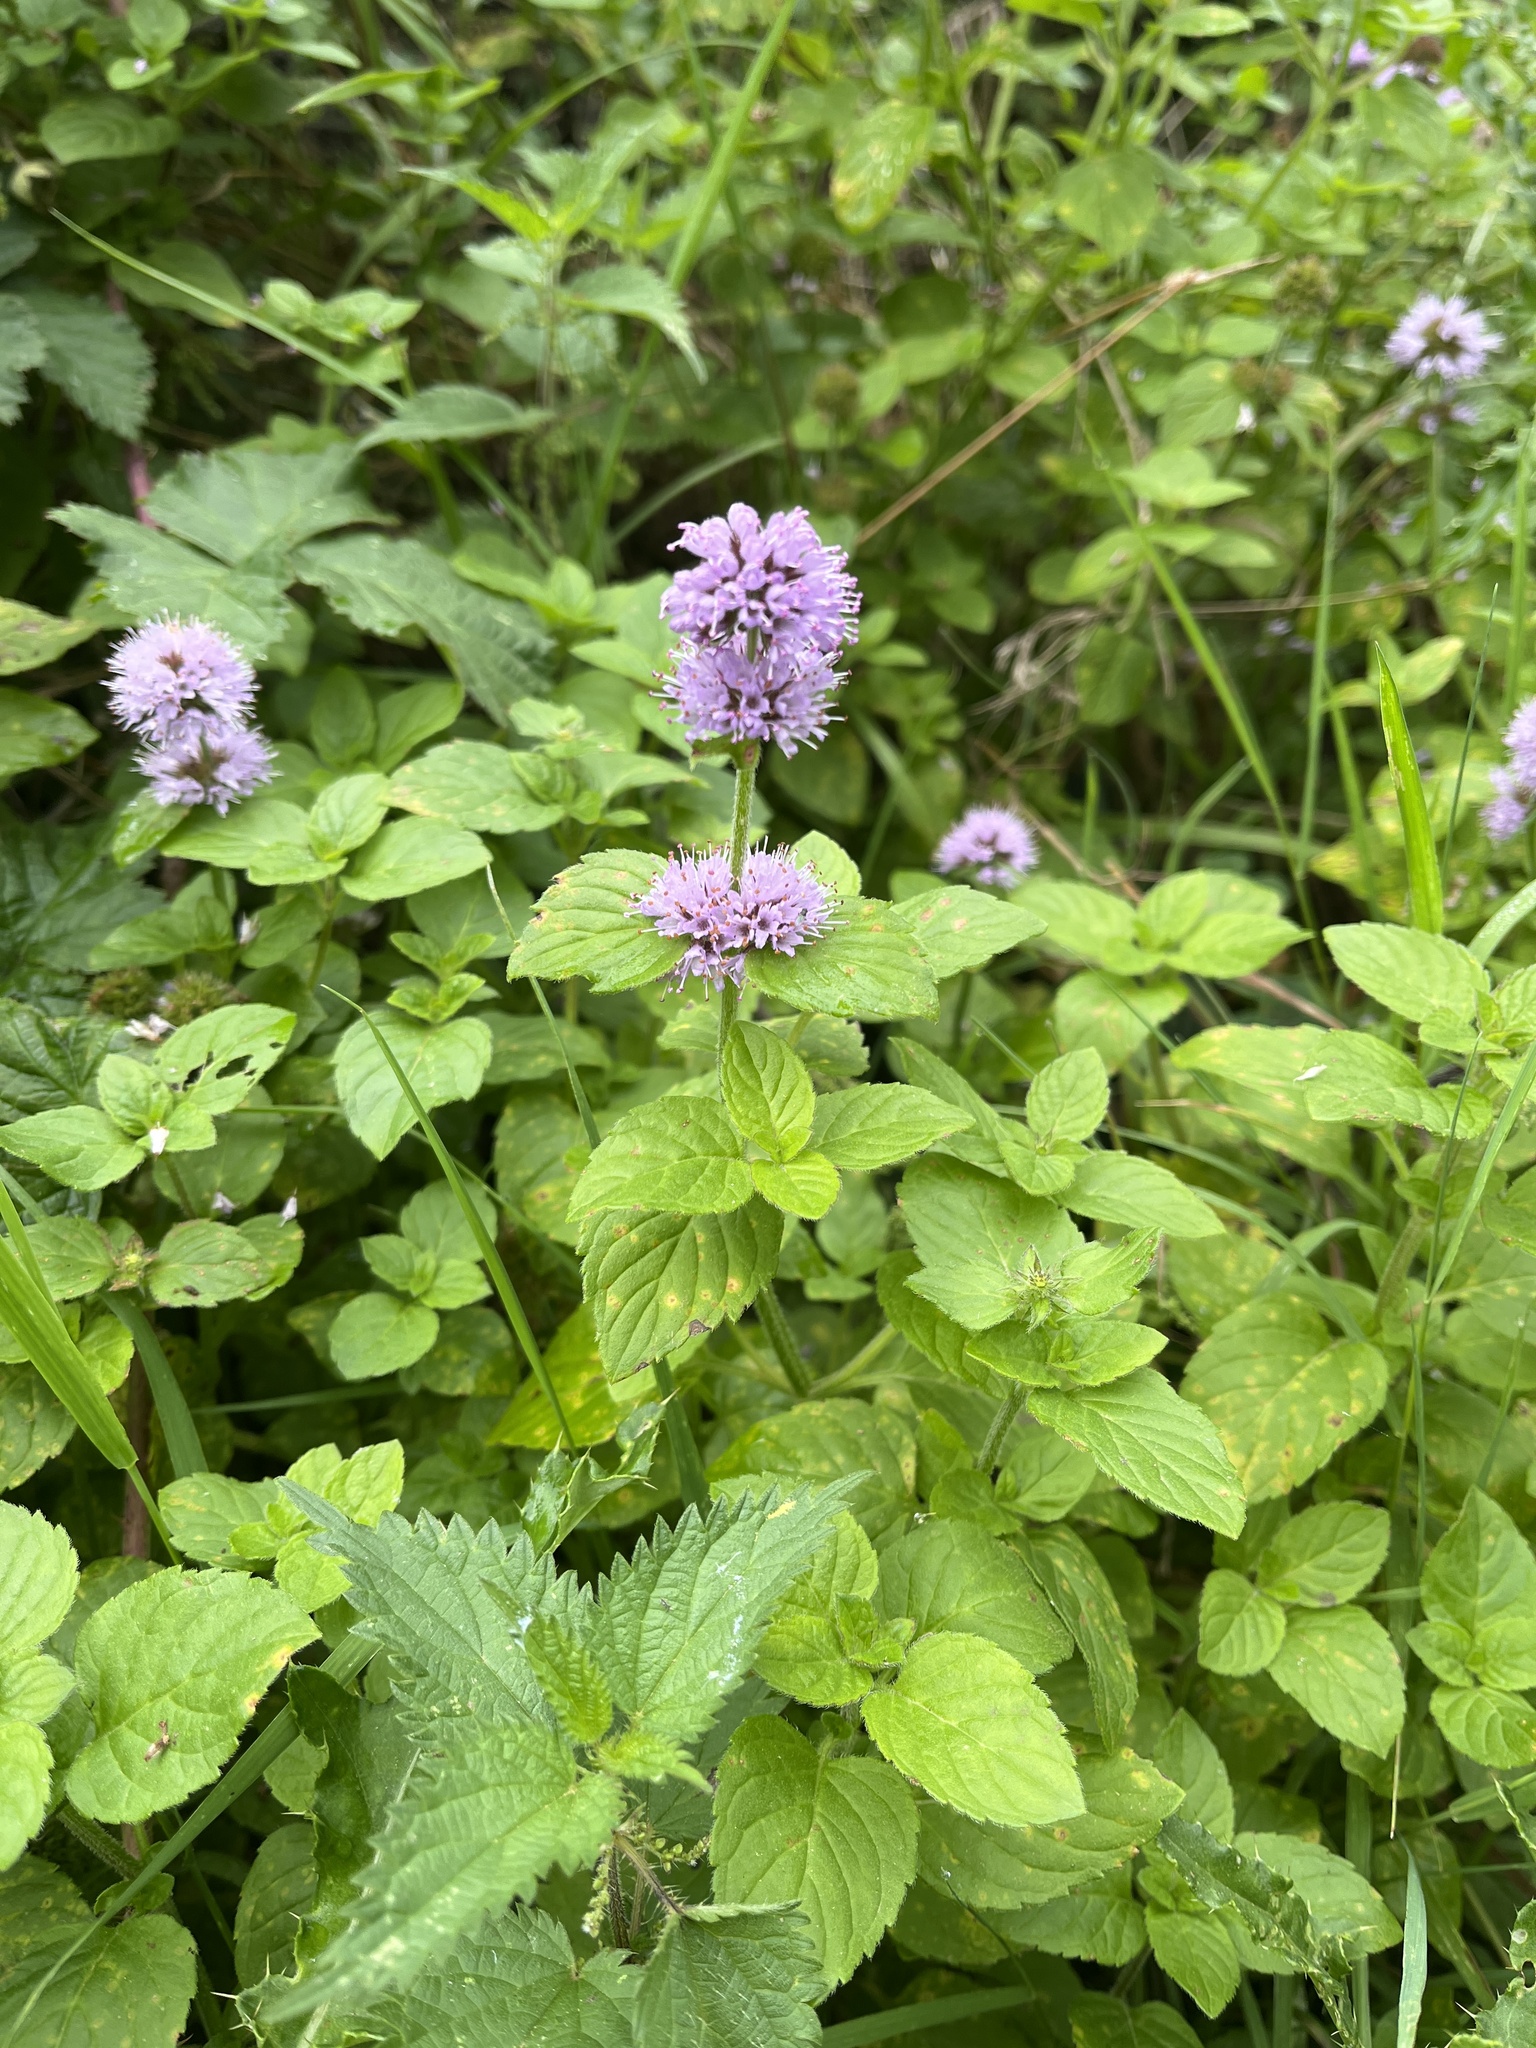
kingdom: Plantae
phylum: Tracheophyta
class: Magnoliopsida
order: Lamiales
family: Lamiaceae
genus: Mentha
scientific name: Mentha aquatica
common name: Water mint
